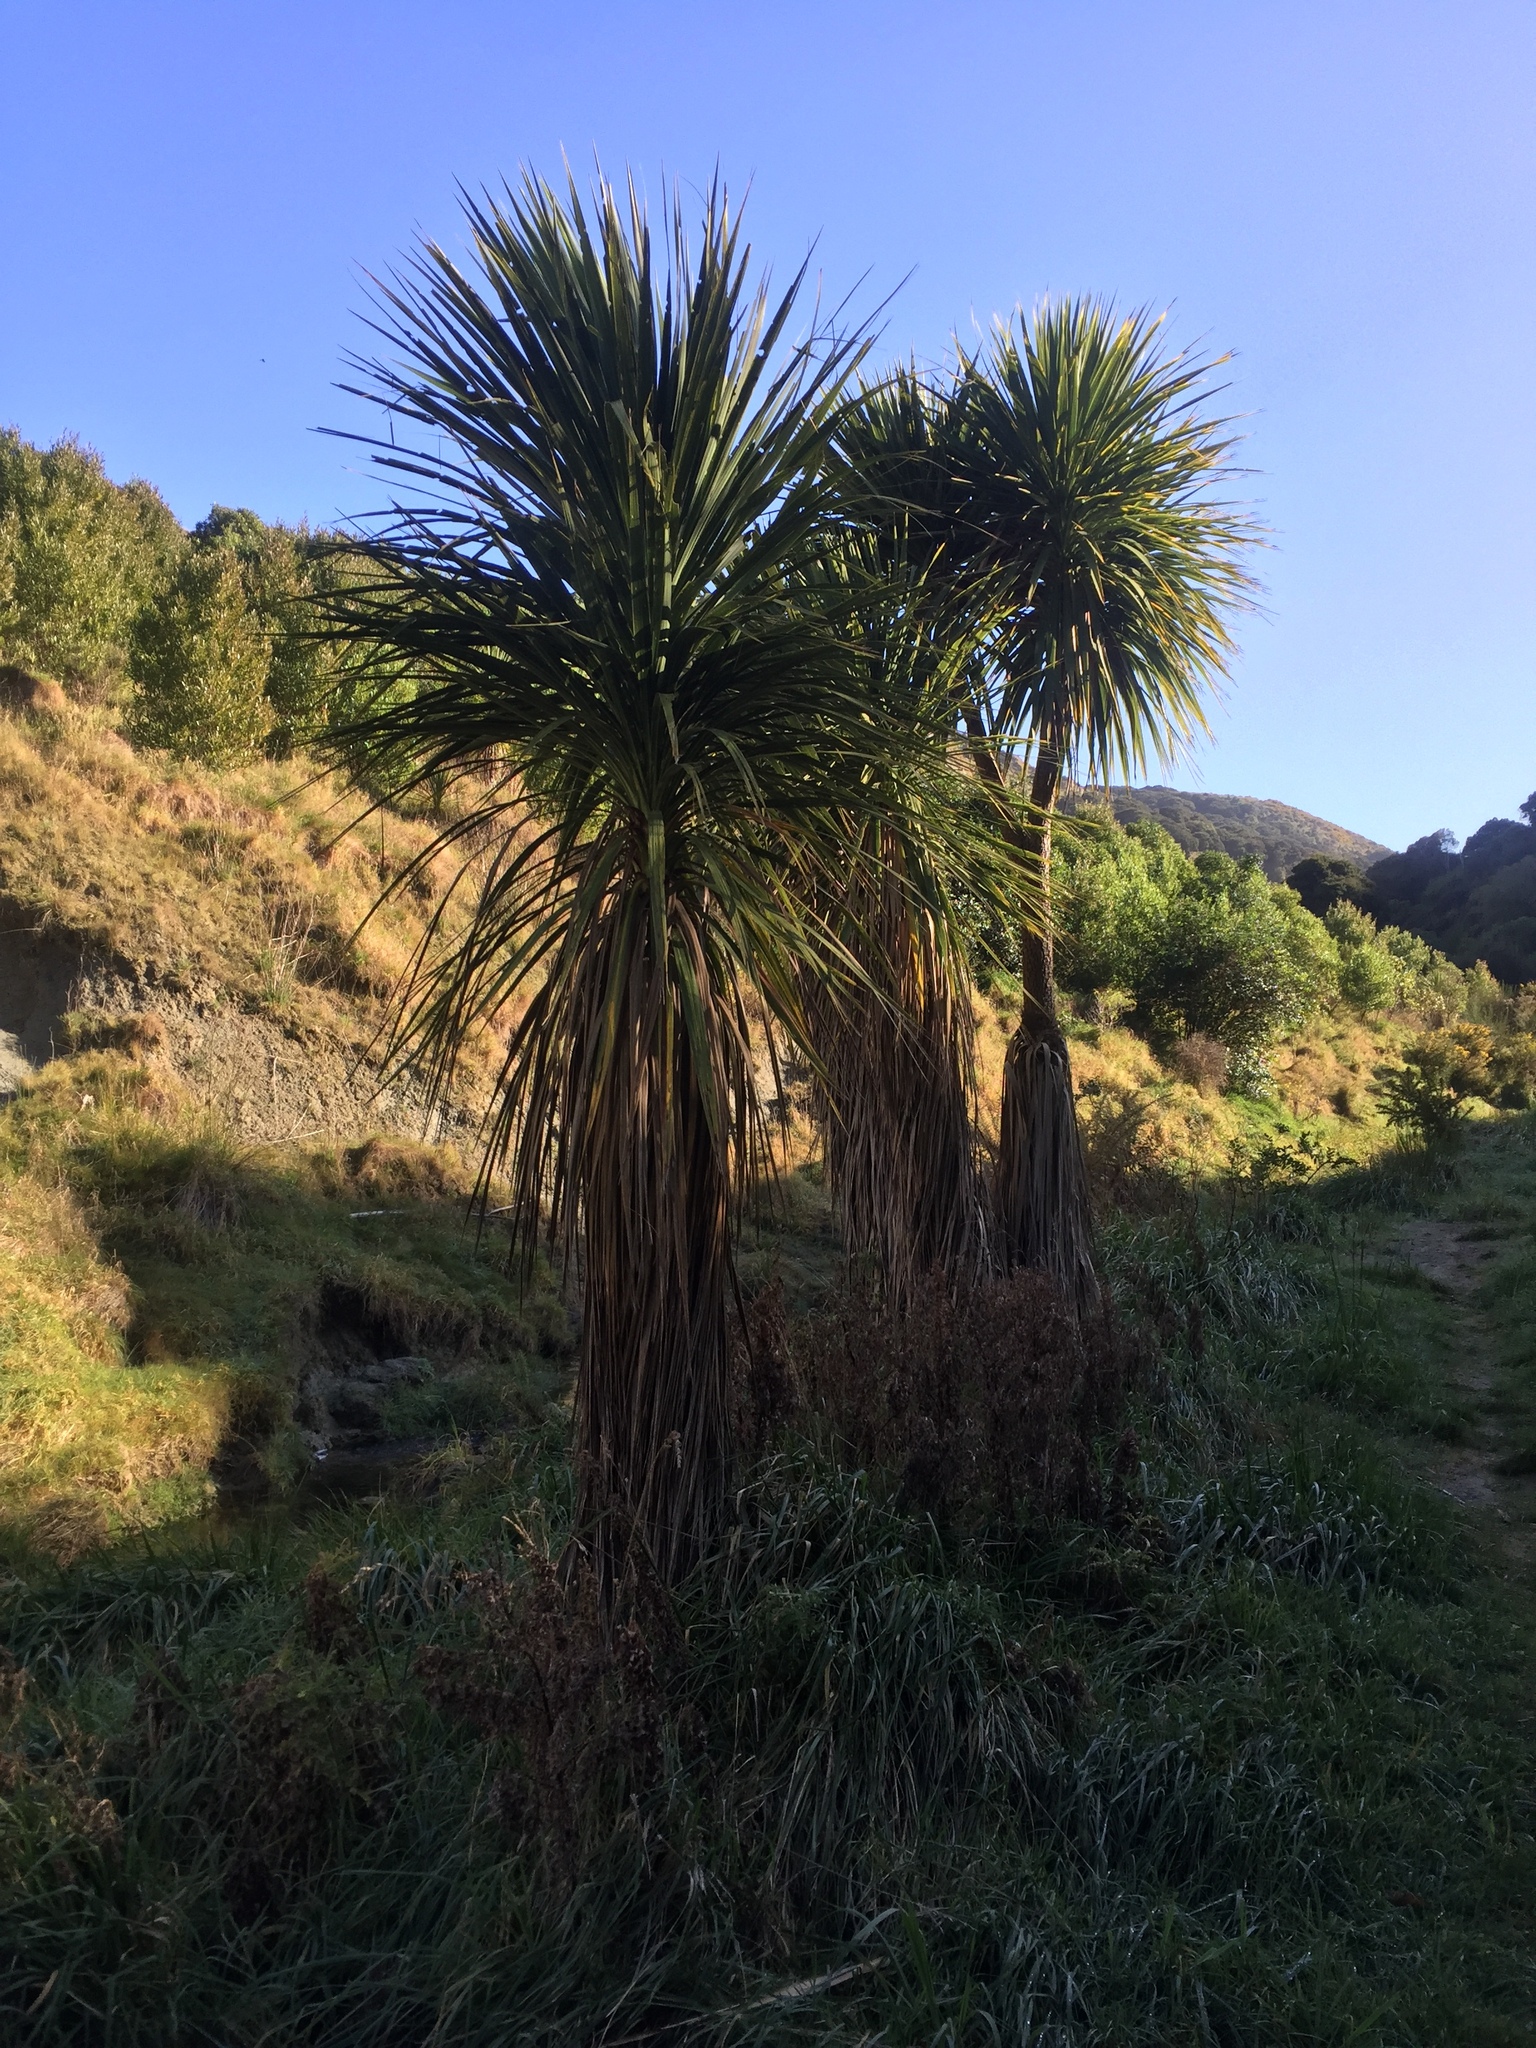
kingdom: Plantae
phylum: Tracheophyta
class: Liliopsida
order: Asparagales
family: Asparagaceae
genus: Cordyline
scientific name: Cordyline australis
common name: Cabbage-palm
